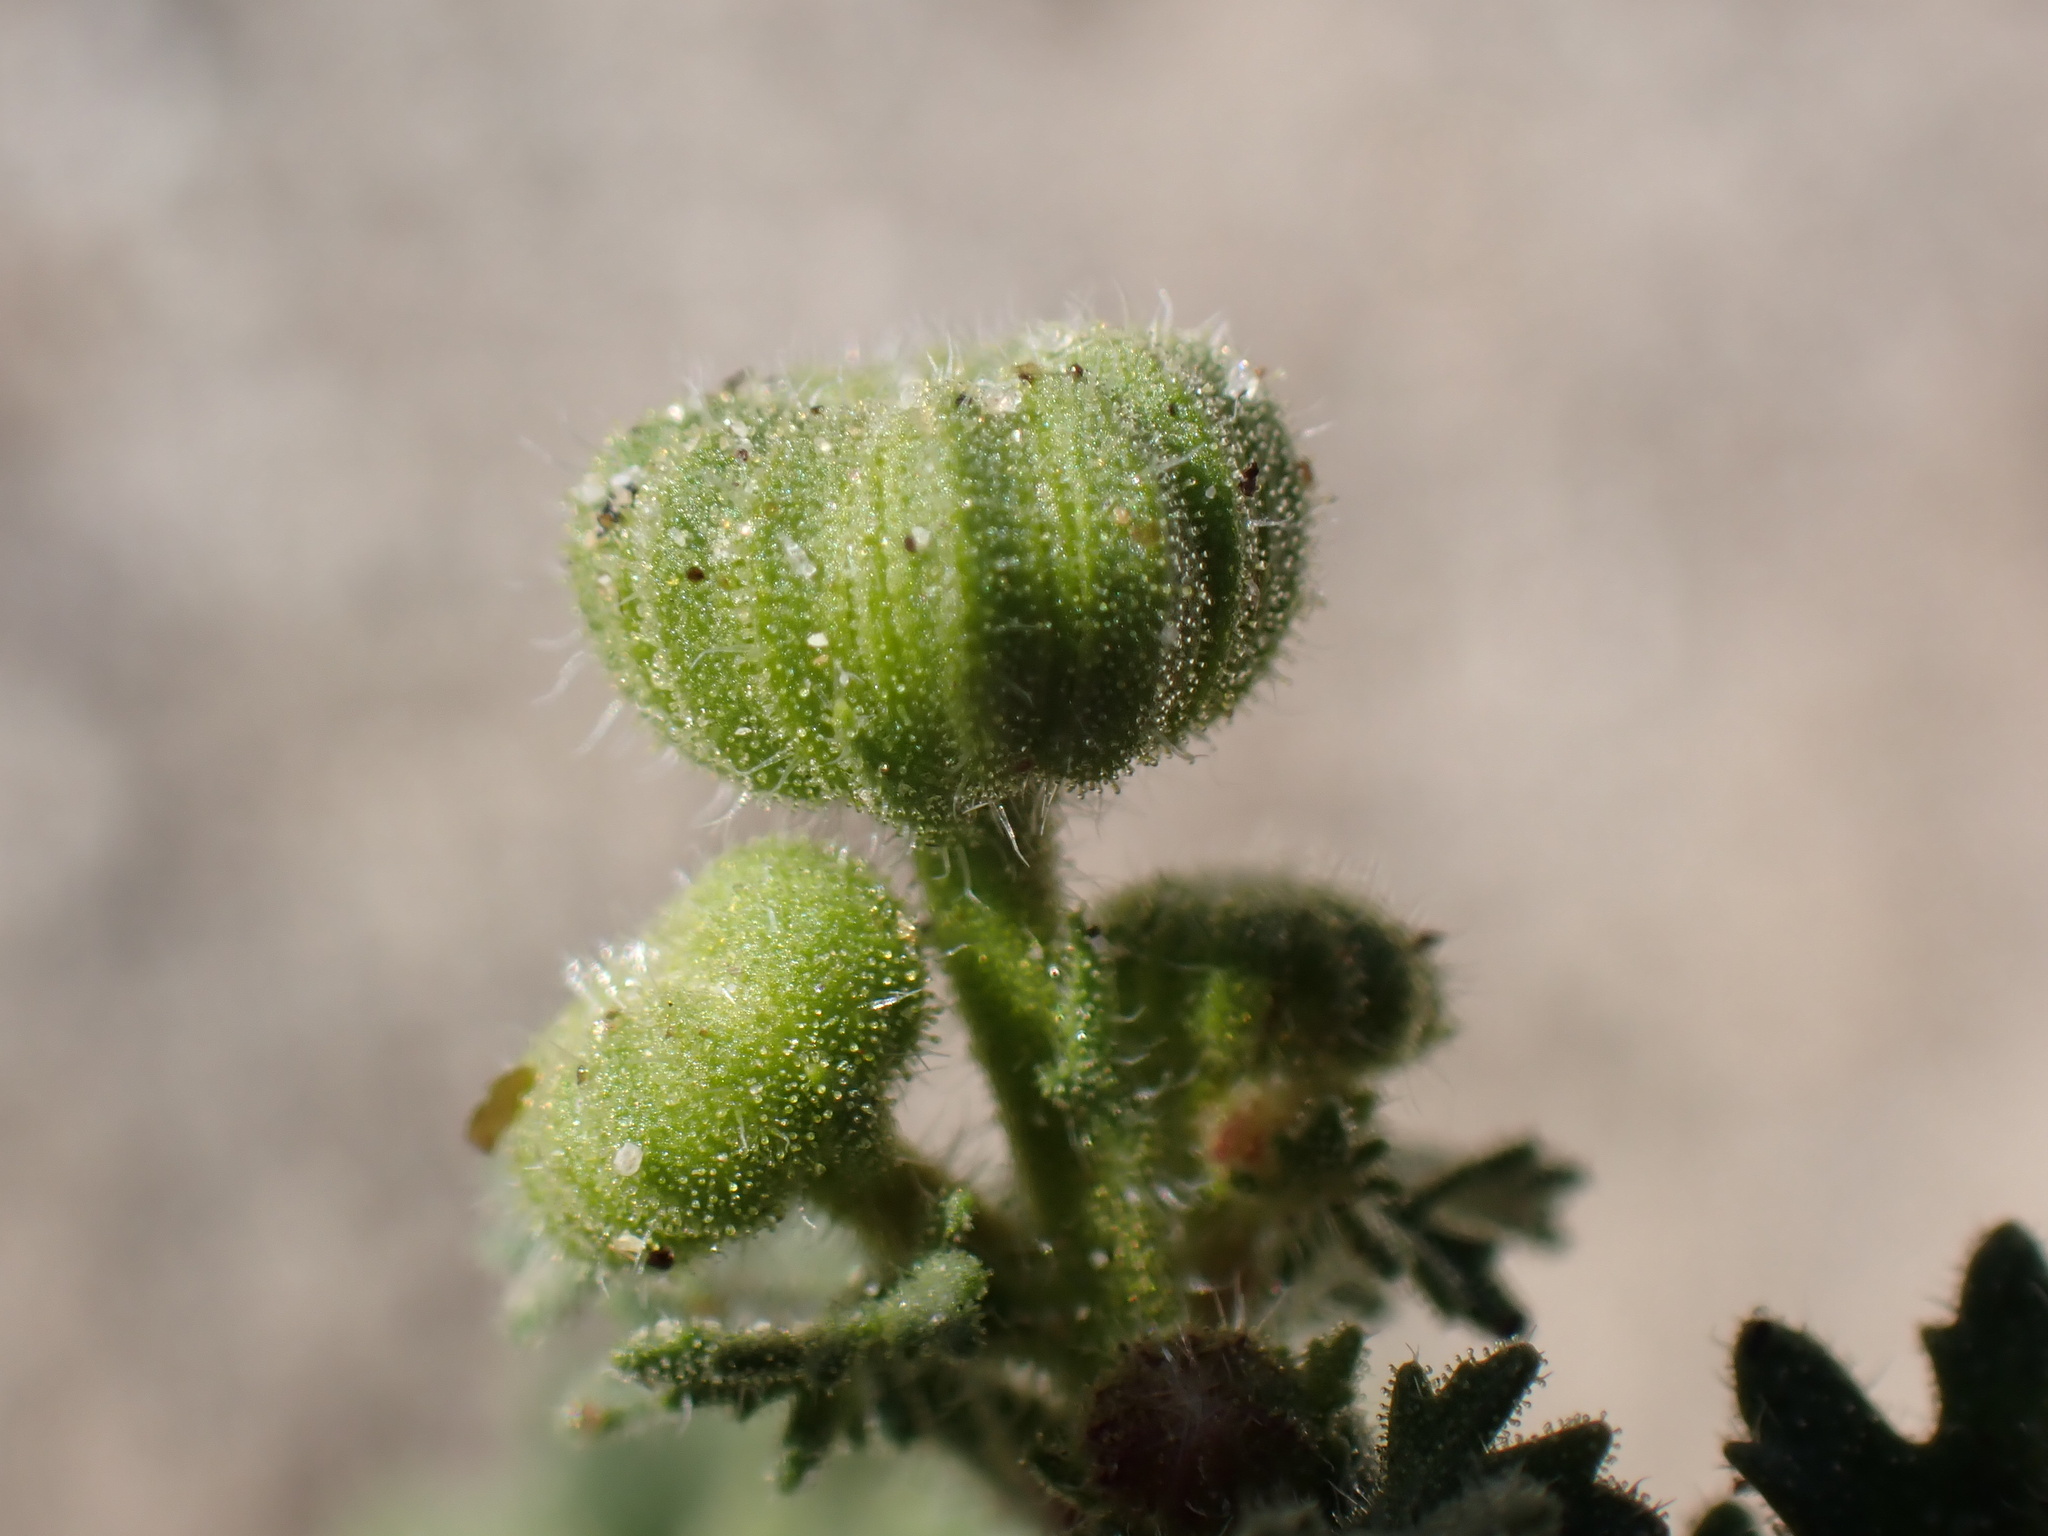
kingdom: Plantae
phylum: Tracheophyta
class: Magnoliopsida
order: Asterales
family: Asteraceae
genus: Laphamia
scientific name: Laphamia emoryi
